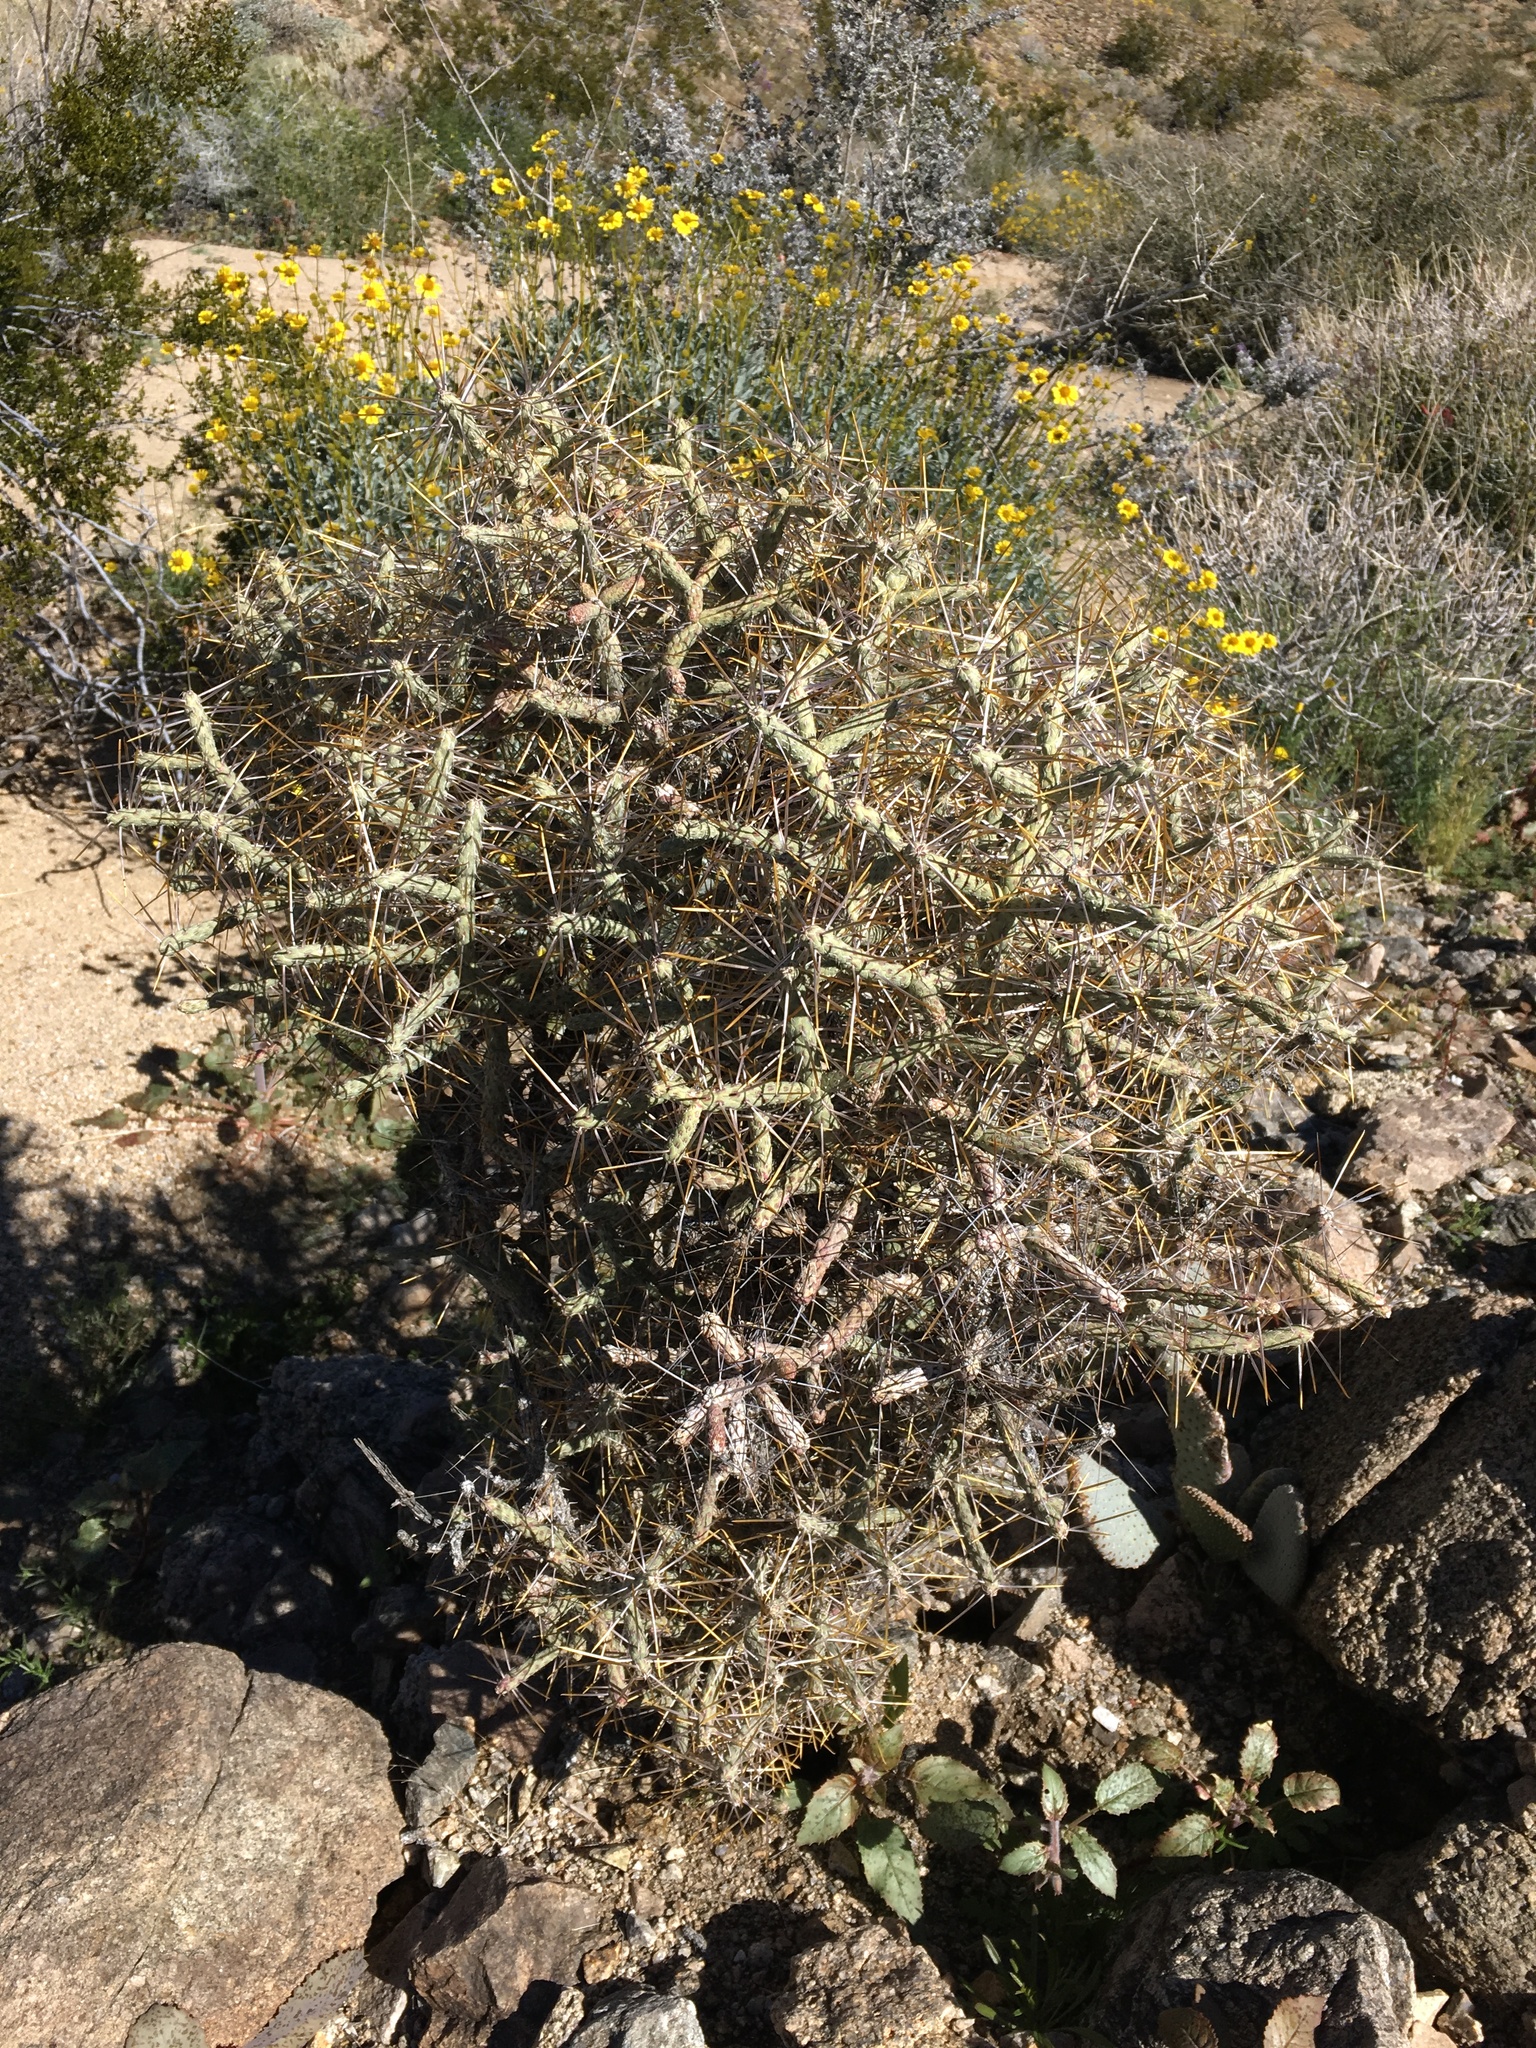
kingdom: Plantae
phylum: Tracheophyta
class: Magnoliopsida
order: Caryophyllales
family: Cactaceae
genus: Cylindropuntia
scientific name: Cylindropuntia ramosissima
